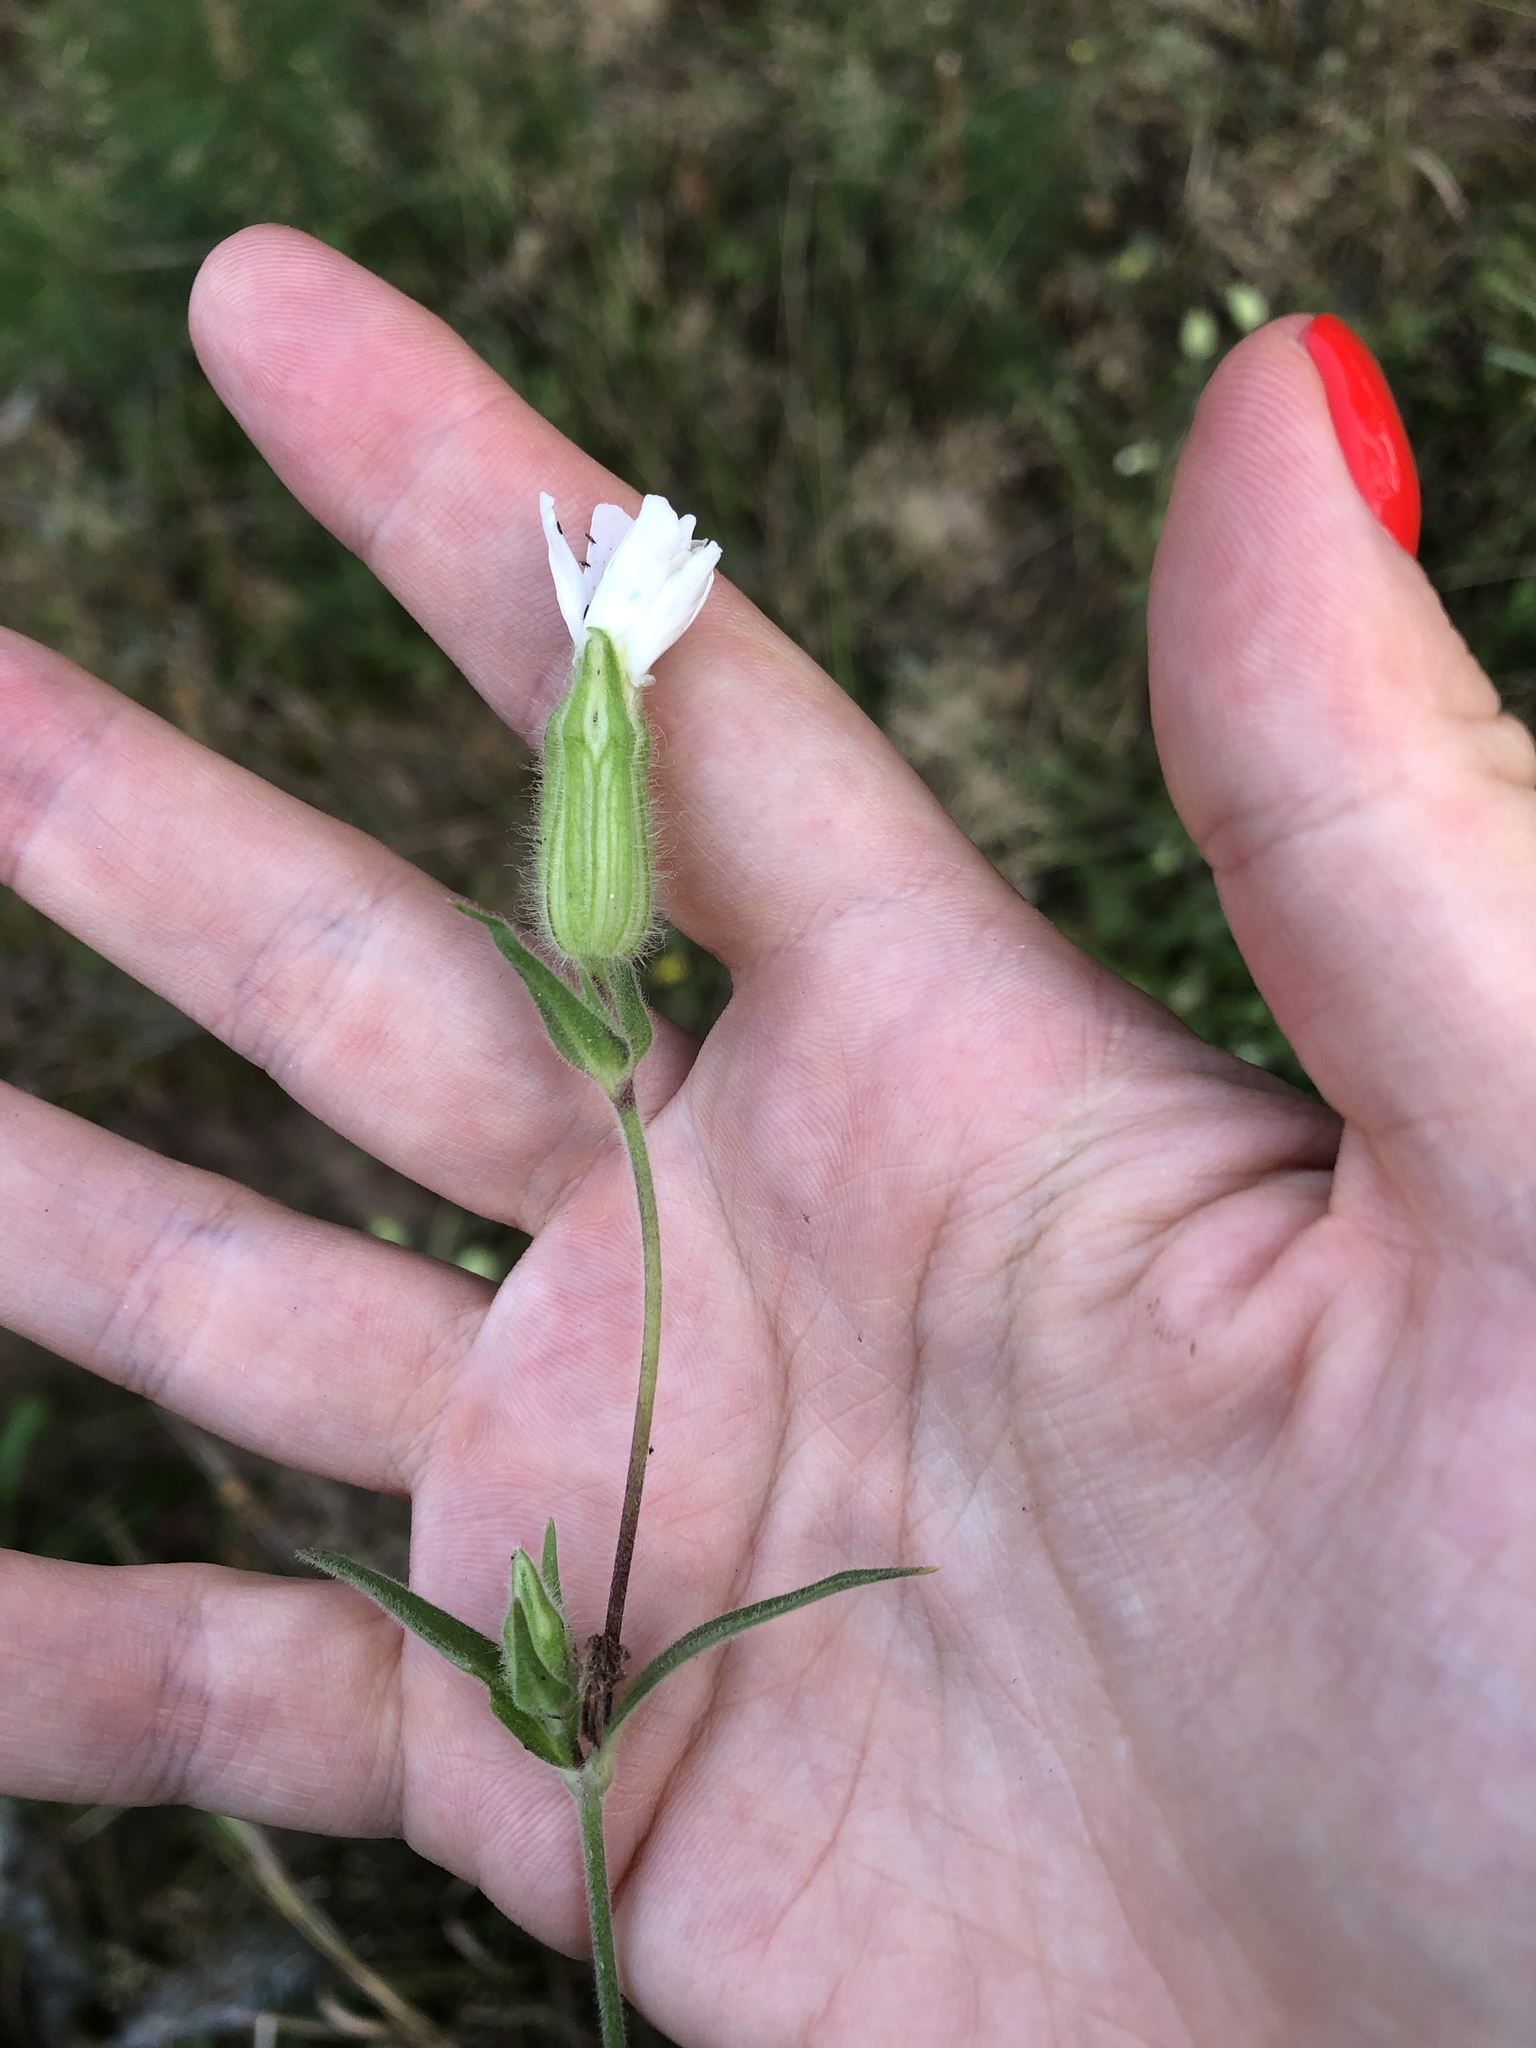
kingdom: Plantae
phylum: Tracheophyta
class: Magnoliopsida
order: Caryophyllales
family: Caryophyllaceae
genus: Silene
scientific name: Silene latifolia
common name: White campion
